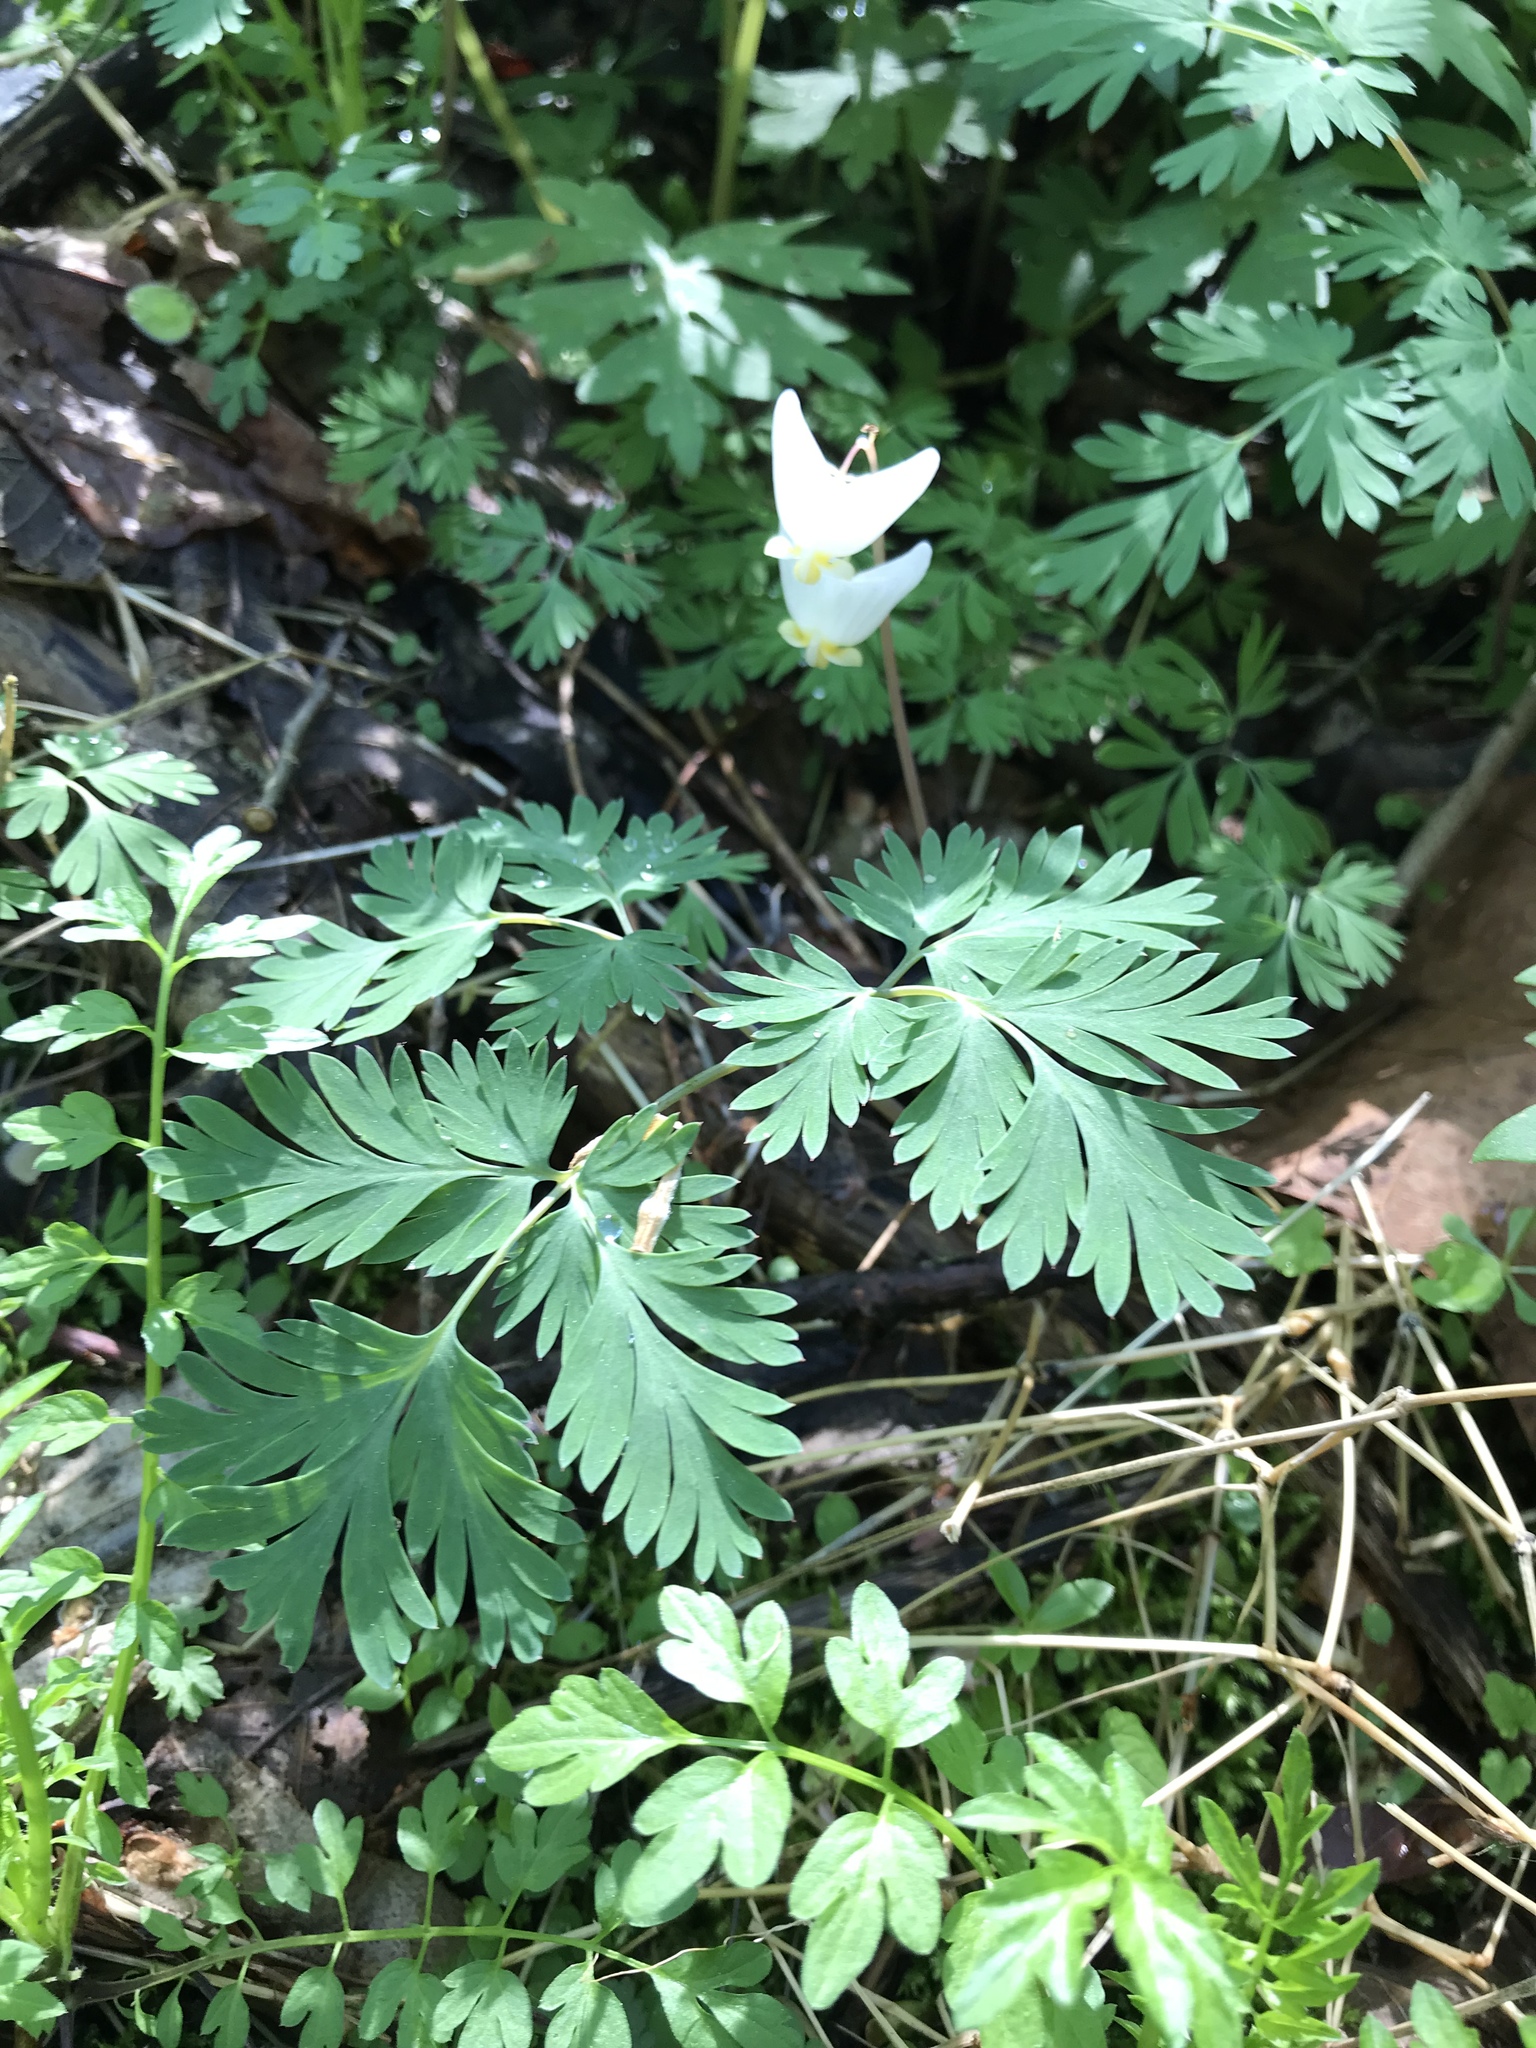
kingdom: Plantae
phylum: Tracheophyta
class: Magnoliopsida
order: Ranunculales
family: Papaveraceae
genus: Dicentra
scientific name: Dicentra cucullaria
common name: Dutchman's breeches
